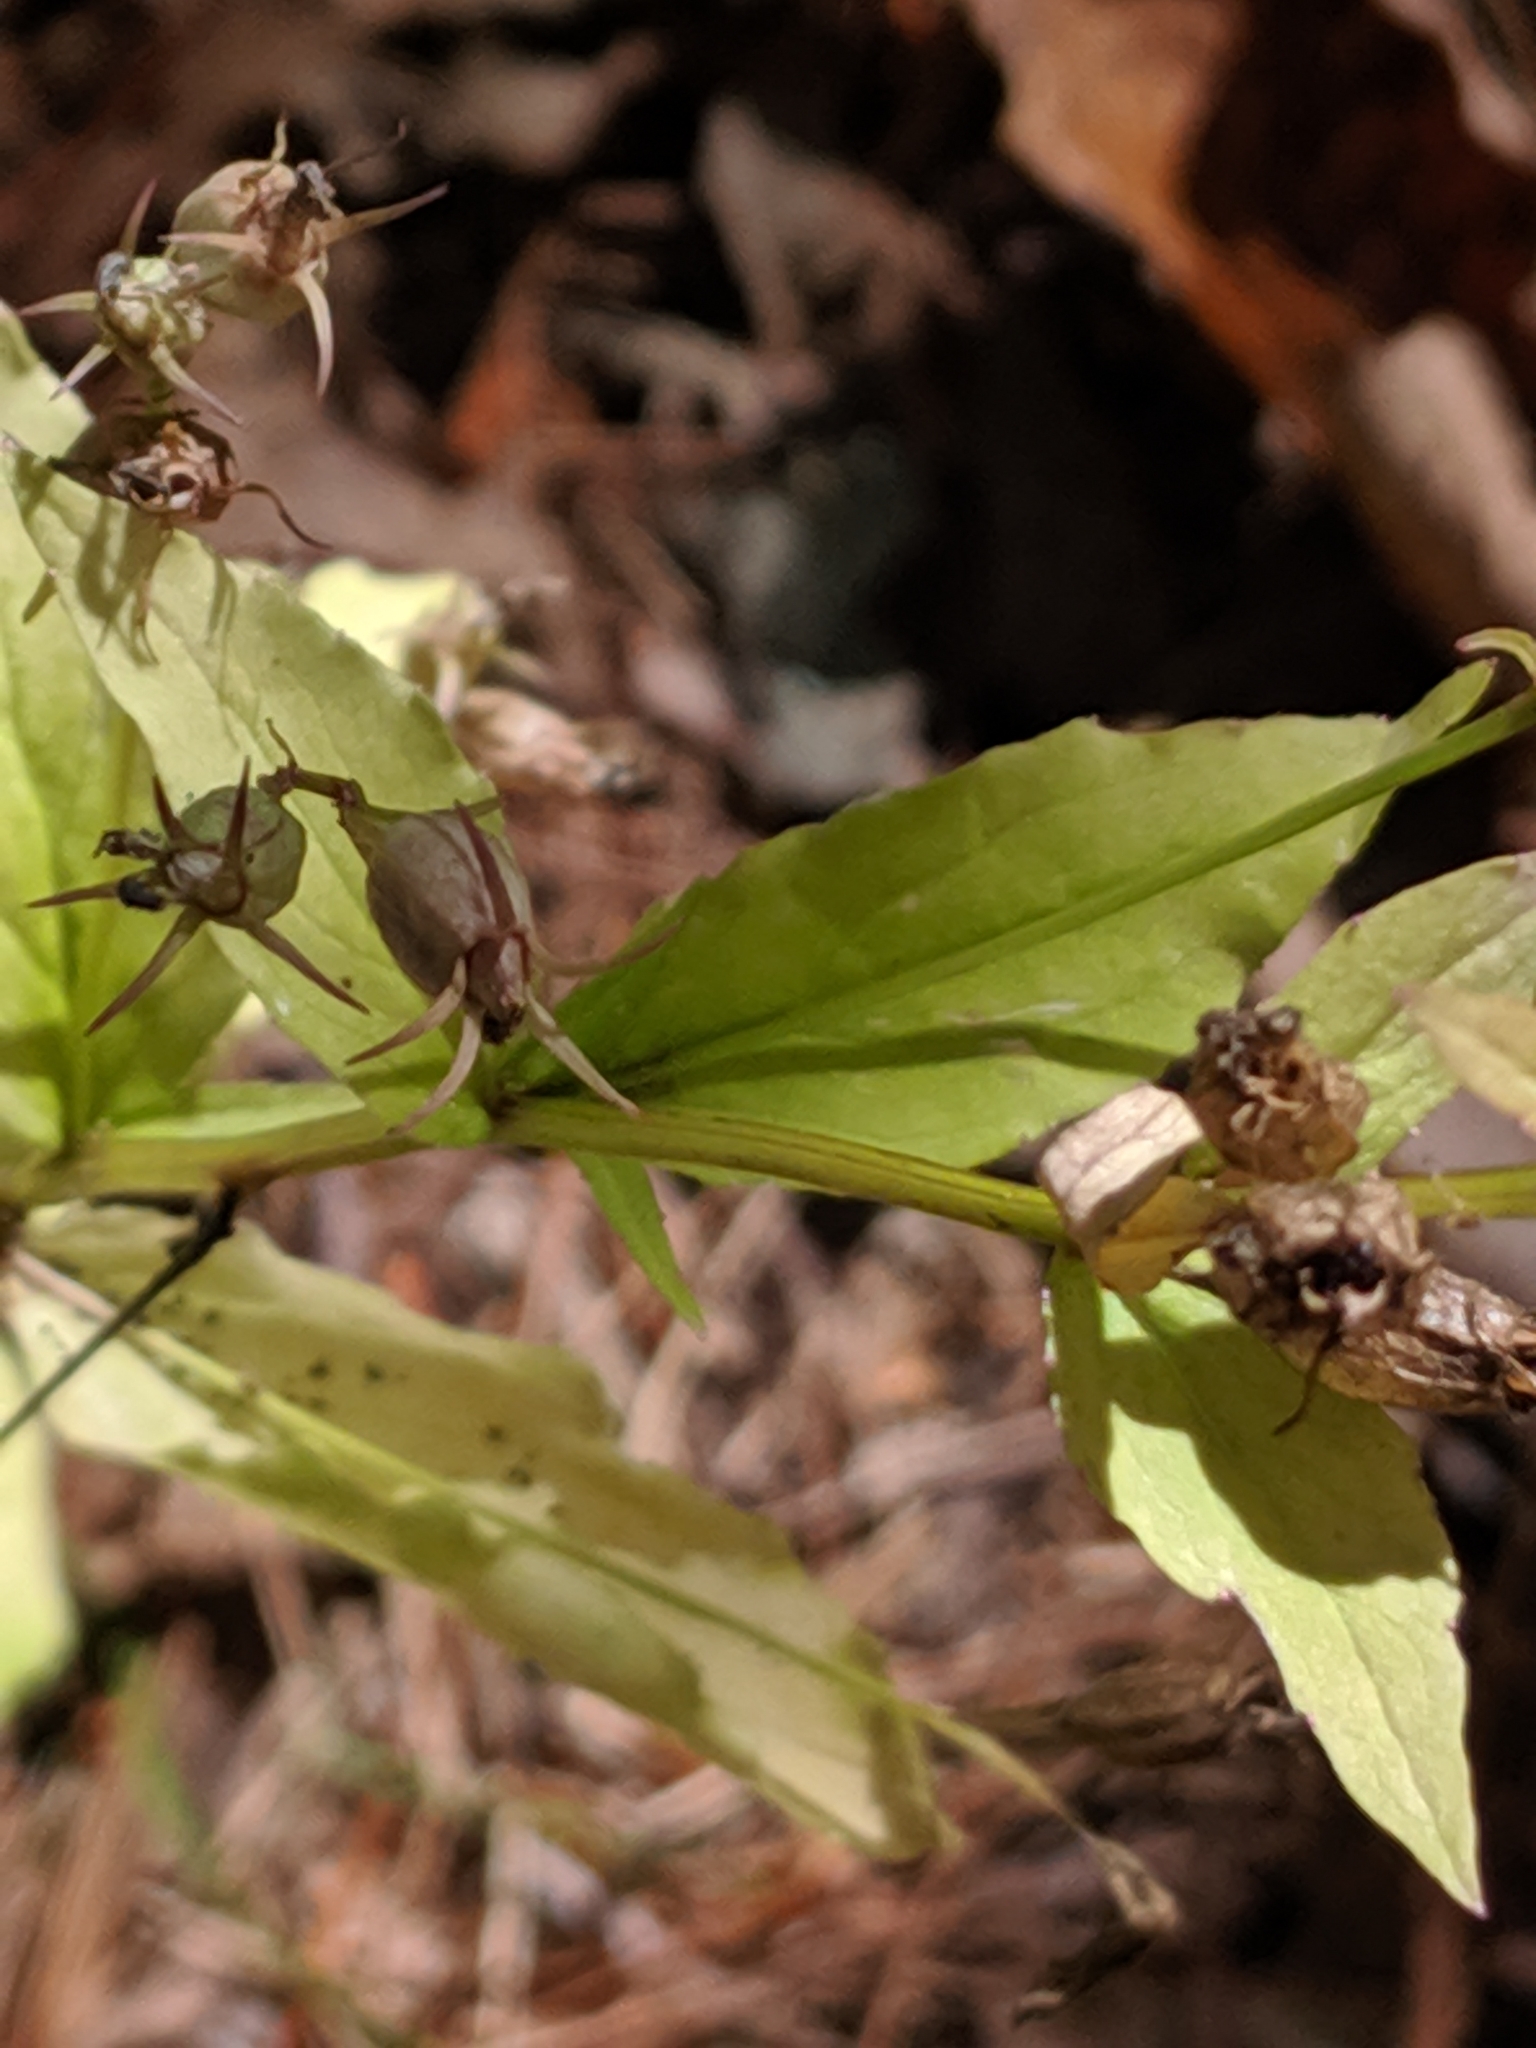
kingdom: Plantae
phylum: Tracheophyta
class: Magnoliopsida
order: Asterales
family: Campanulaceae
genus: Lobelia
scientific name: Lobelia inflata
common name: Indian tobacco
